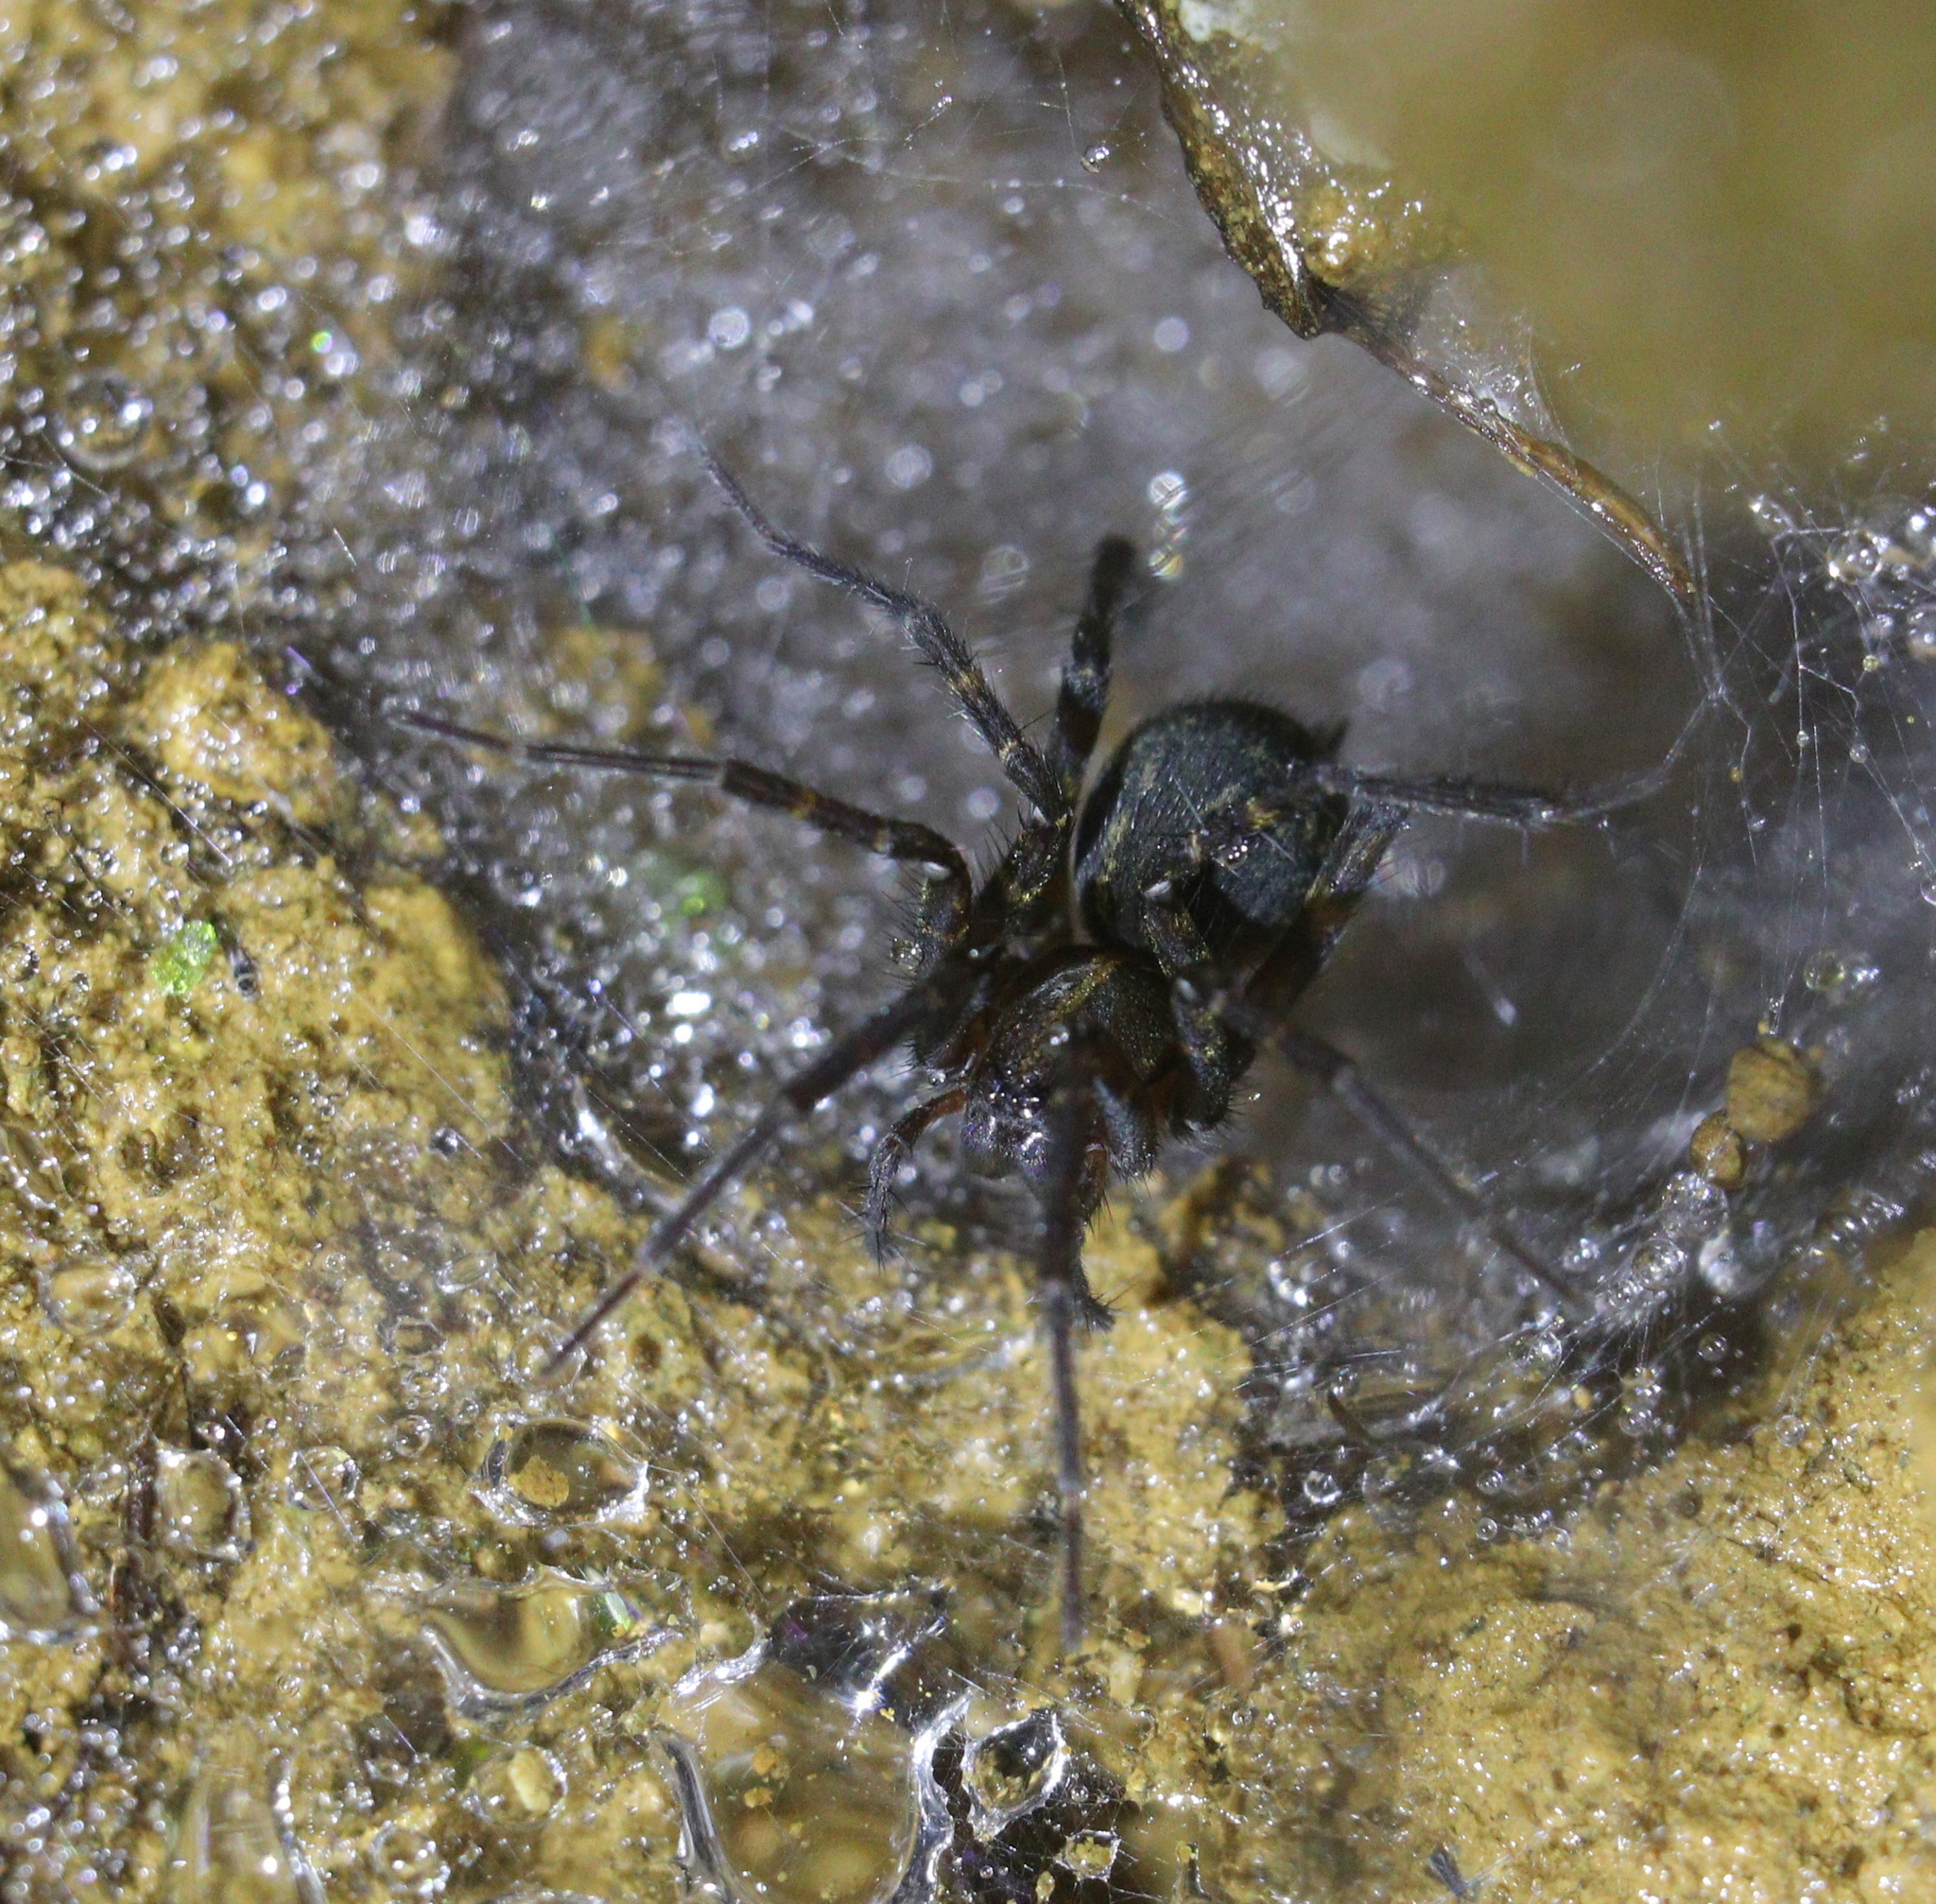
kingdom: Animalia
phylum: Arthropoda
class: Arachnida
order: Araneae
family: Zoropsidae
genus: Tengella
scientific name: Tengella radiata
